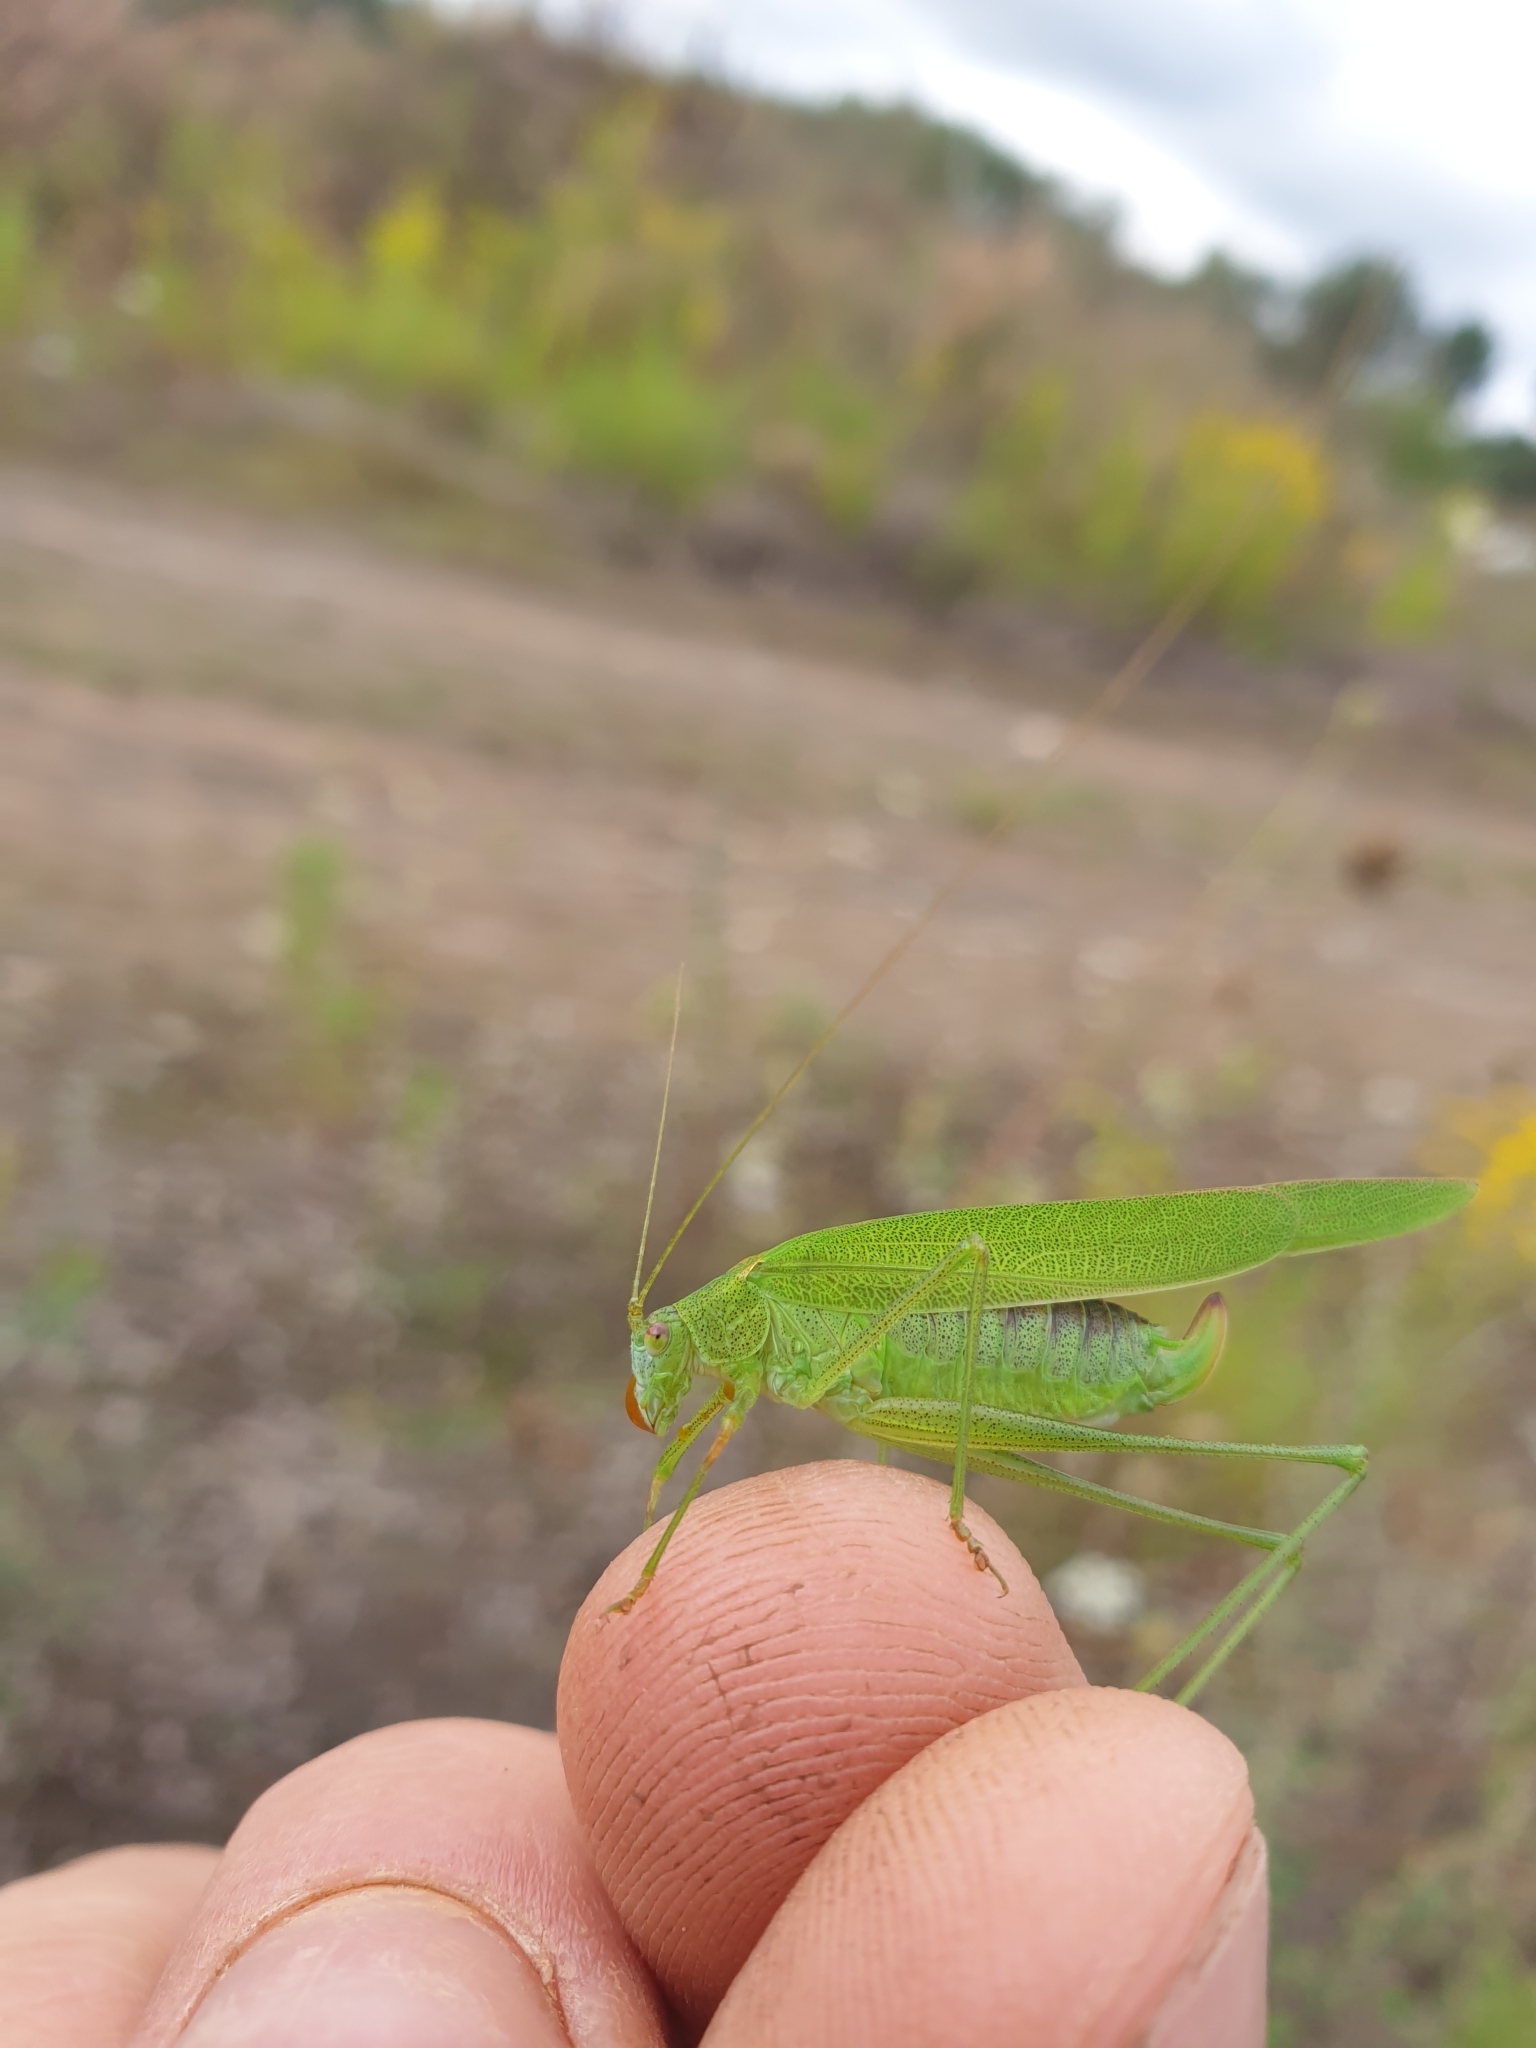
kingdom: Animalia
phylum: Arthropoda
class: Insecta
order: Orthoptera
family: Tettigoniidae
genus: Phaneroptera
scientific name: Phaneroptera falcata
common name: Sickle-bearing bush-cricket
